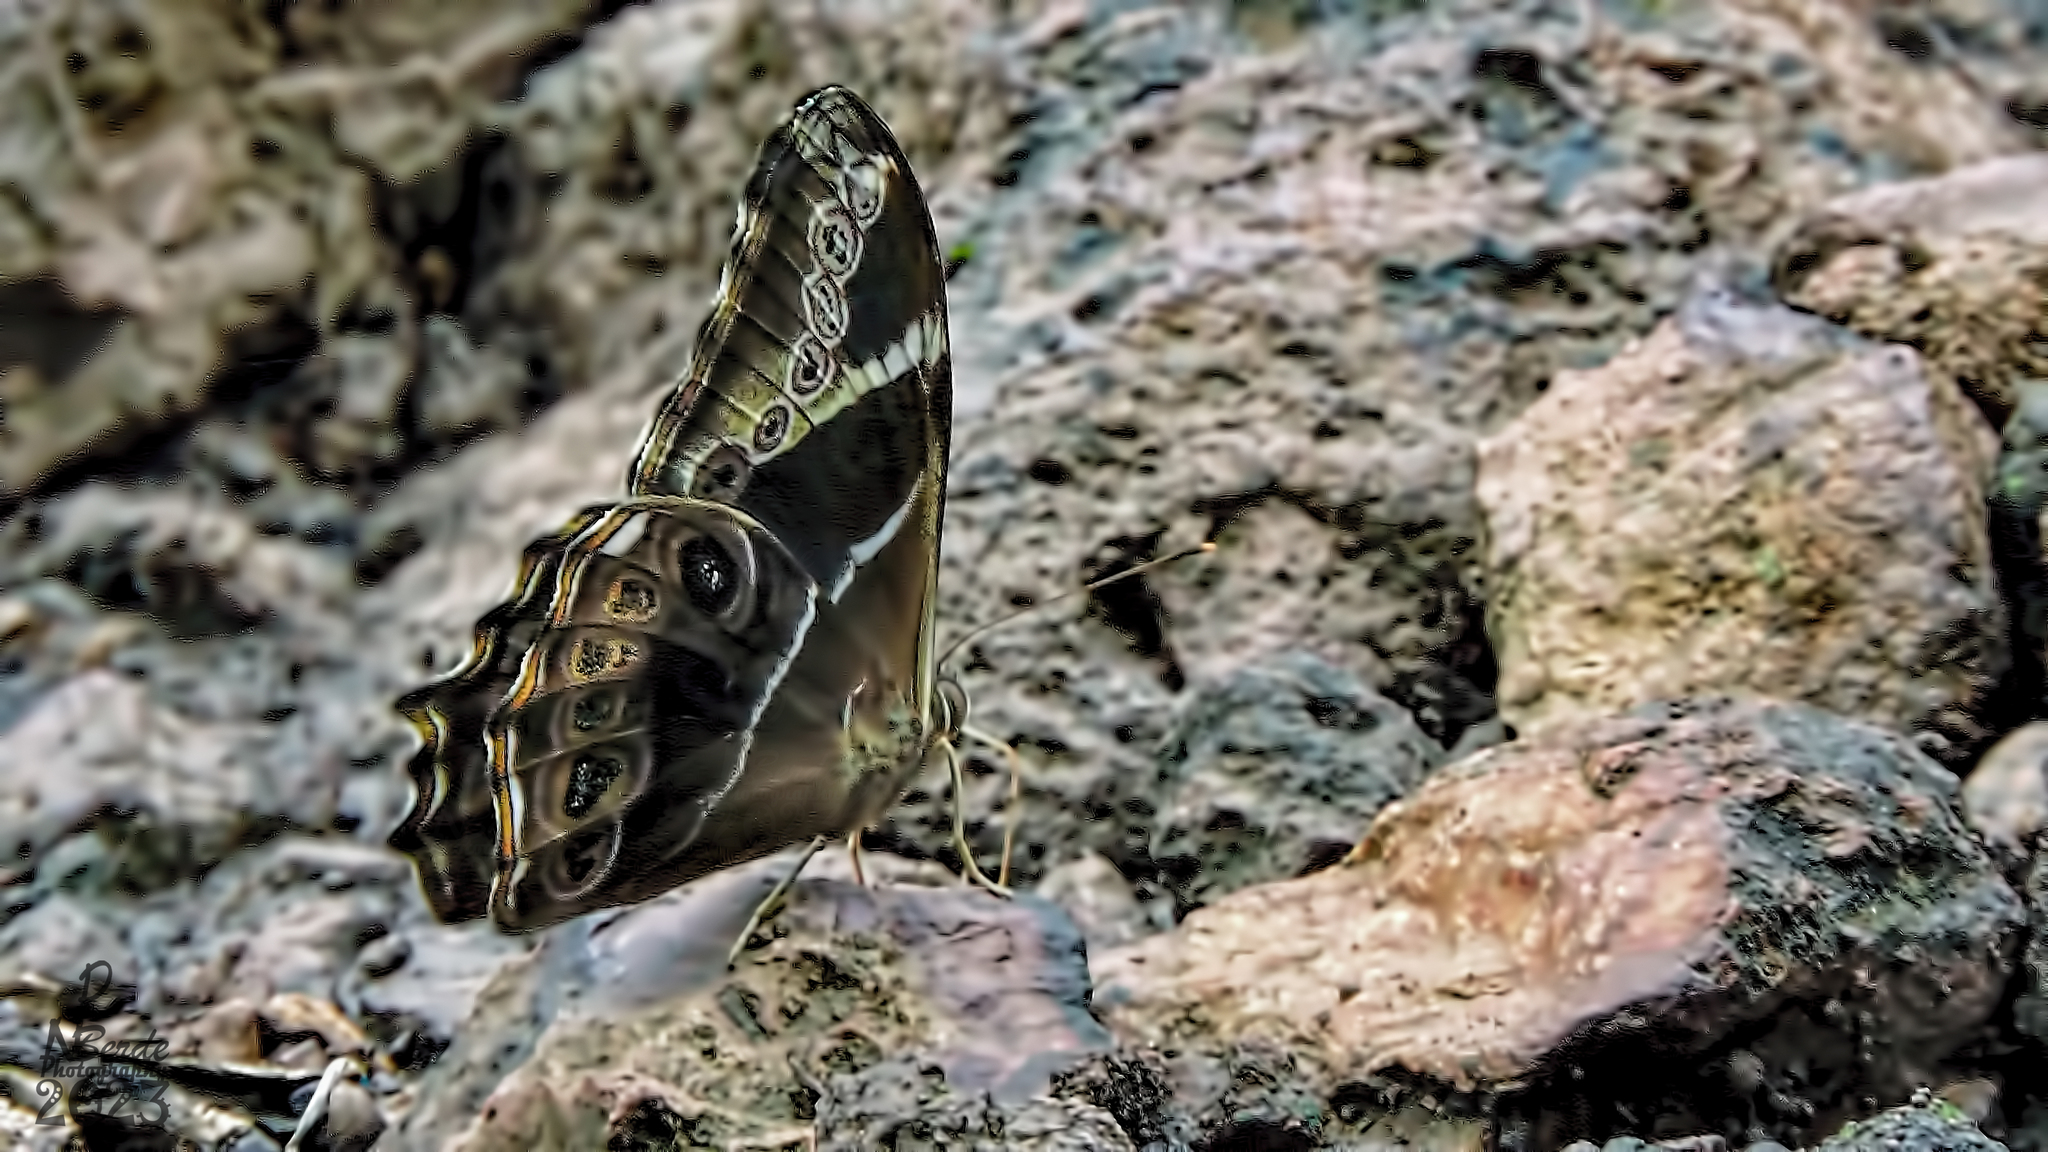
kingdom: Animalia
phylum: Arthropoda
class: Insecta
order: Lepidoptera
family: Nymphalidae
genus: Lethe
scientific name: Lethe europa
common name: Bamboo treebrown
